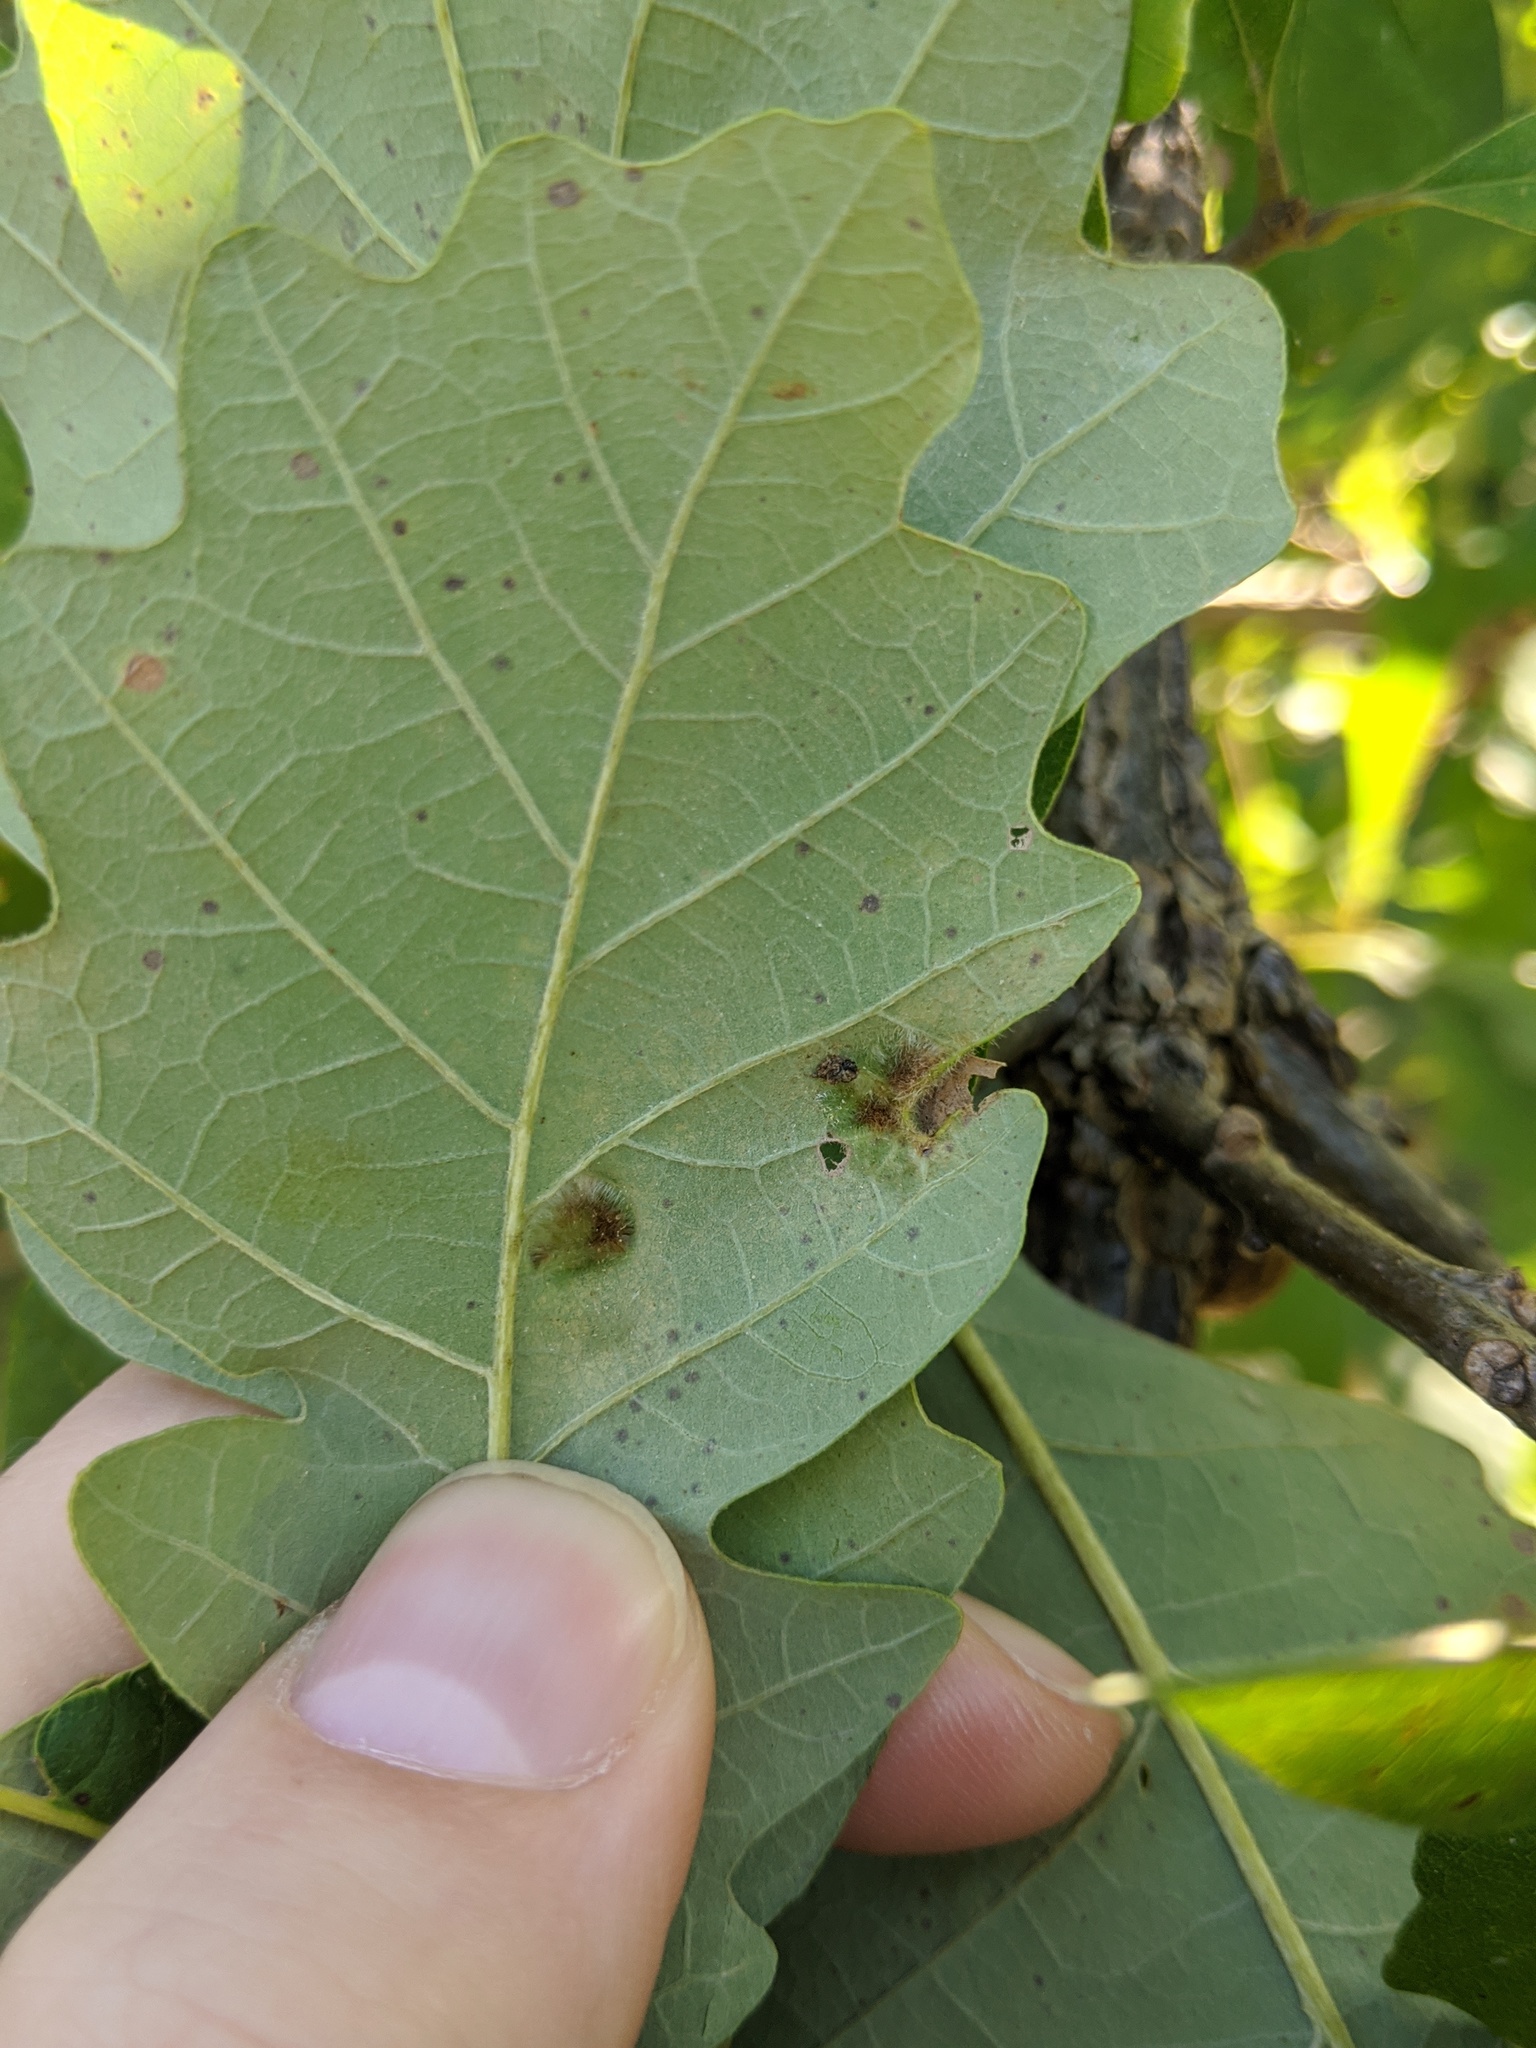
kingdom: Animalia
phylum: Arthropoda
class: Arachnida
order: Trombidiformes
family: Eriophyidae
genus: Aceria
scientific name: Aceria quercina
